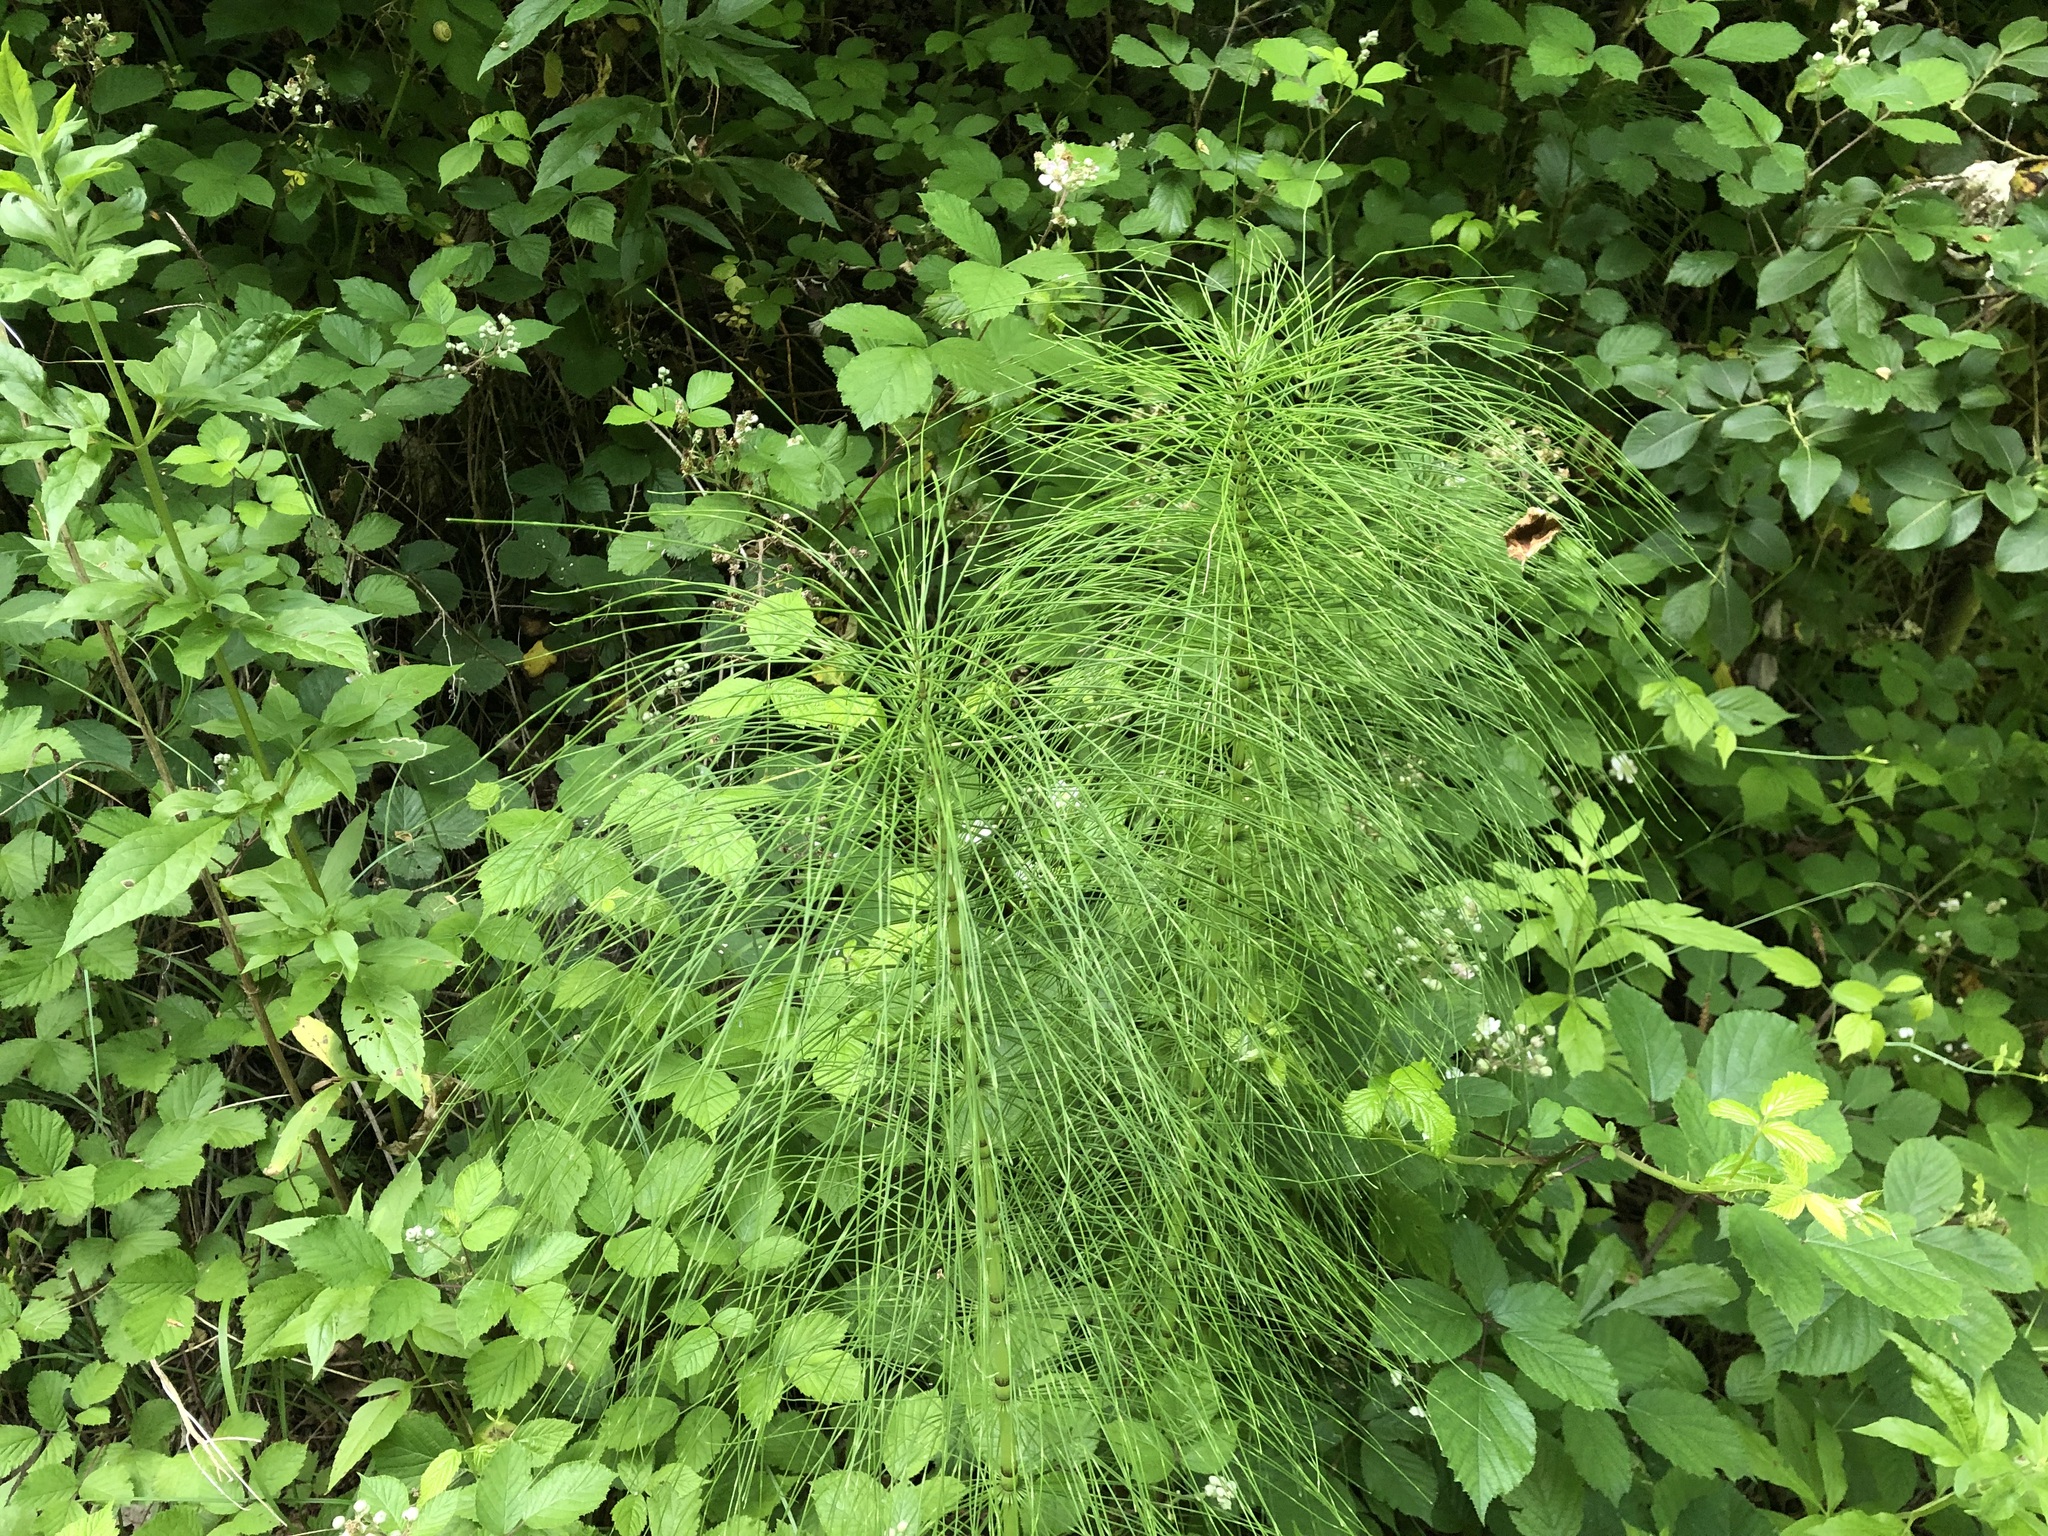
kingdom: Plantae
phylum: Tracheophyta
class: Polypodiopsida
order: Equisetales
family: Equisetaceae
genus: Equisetum
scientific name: Equisetum telmateia
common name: Great horsetail
